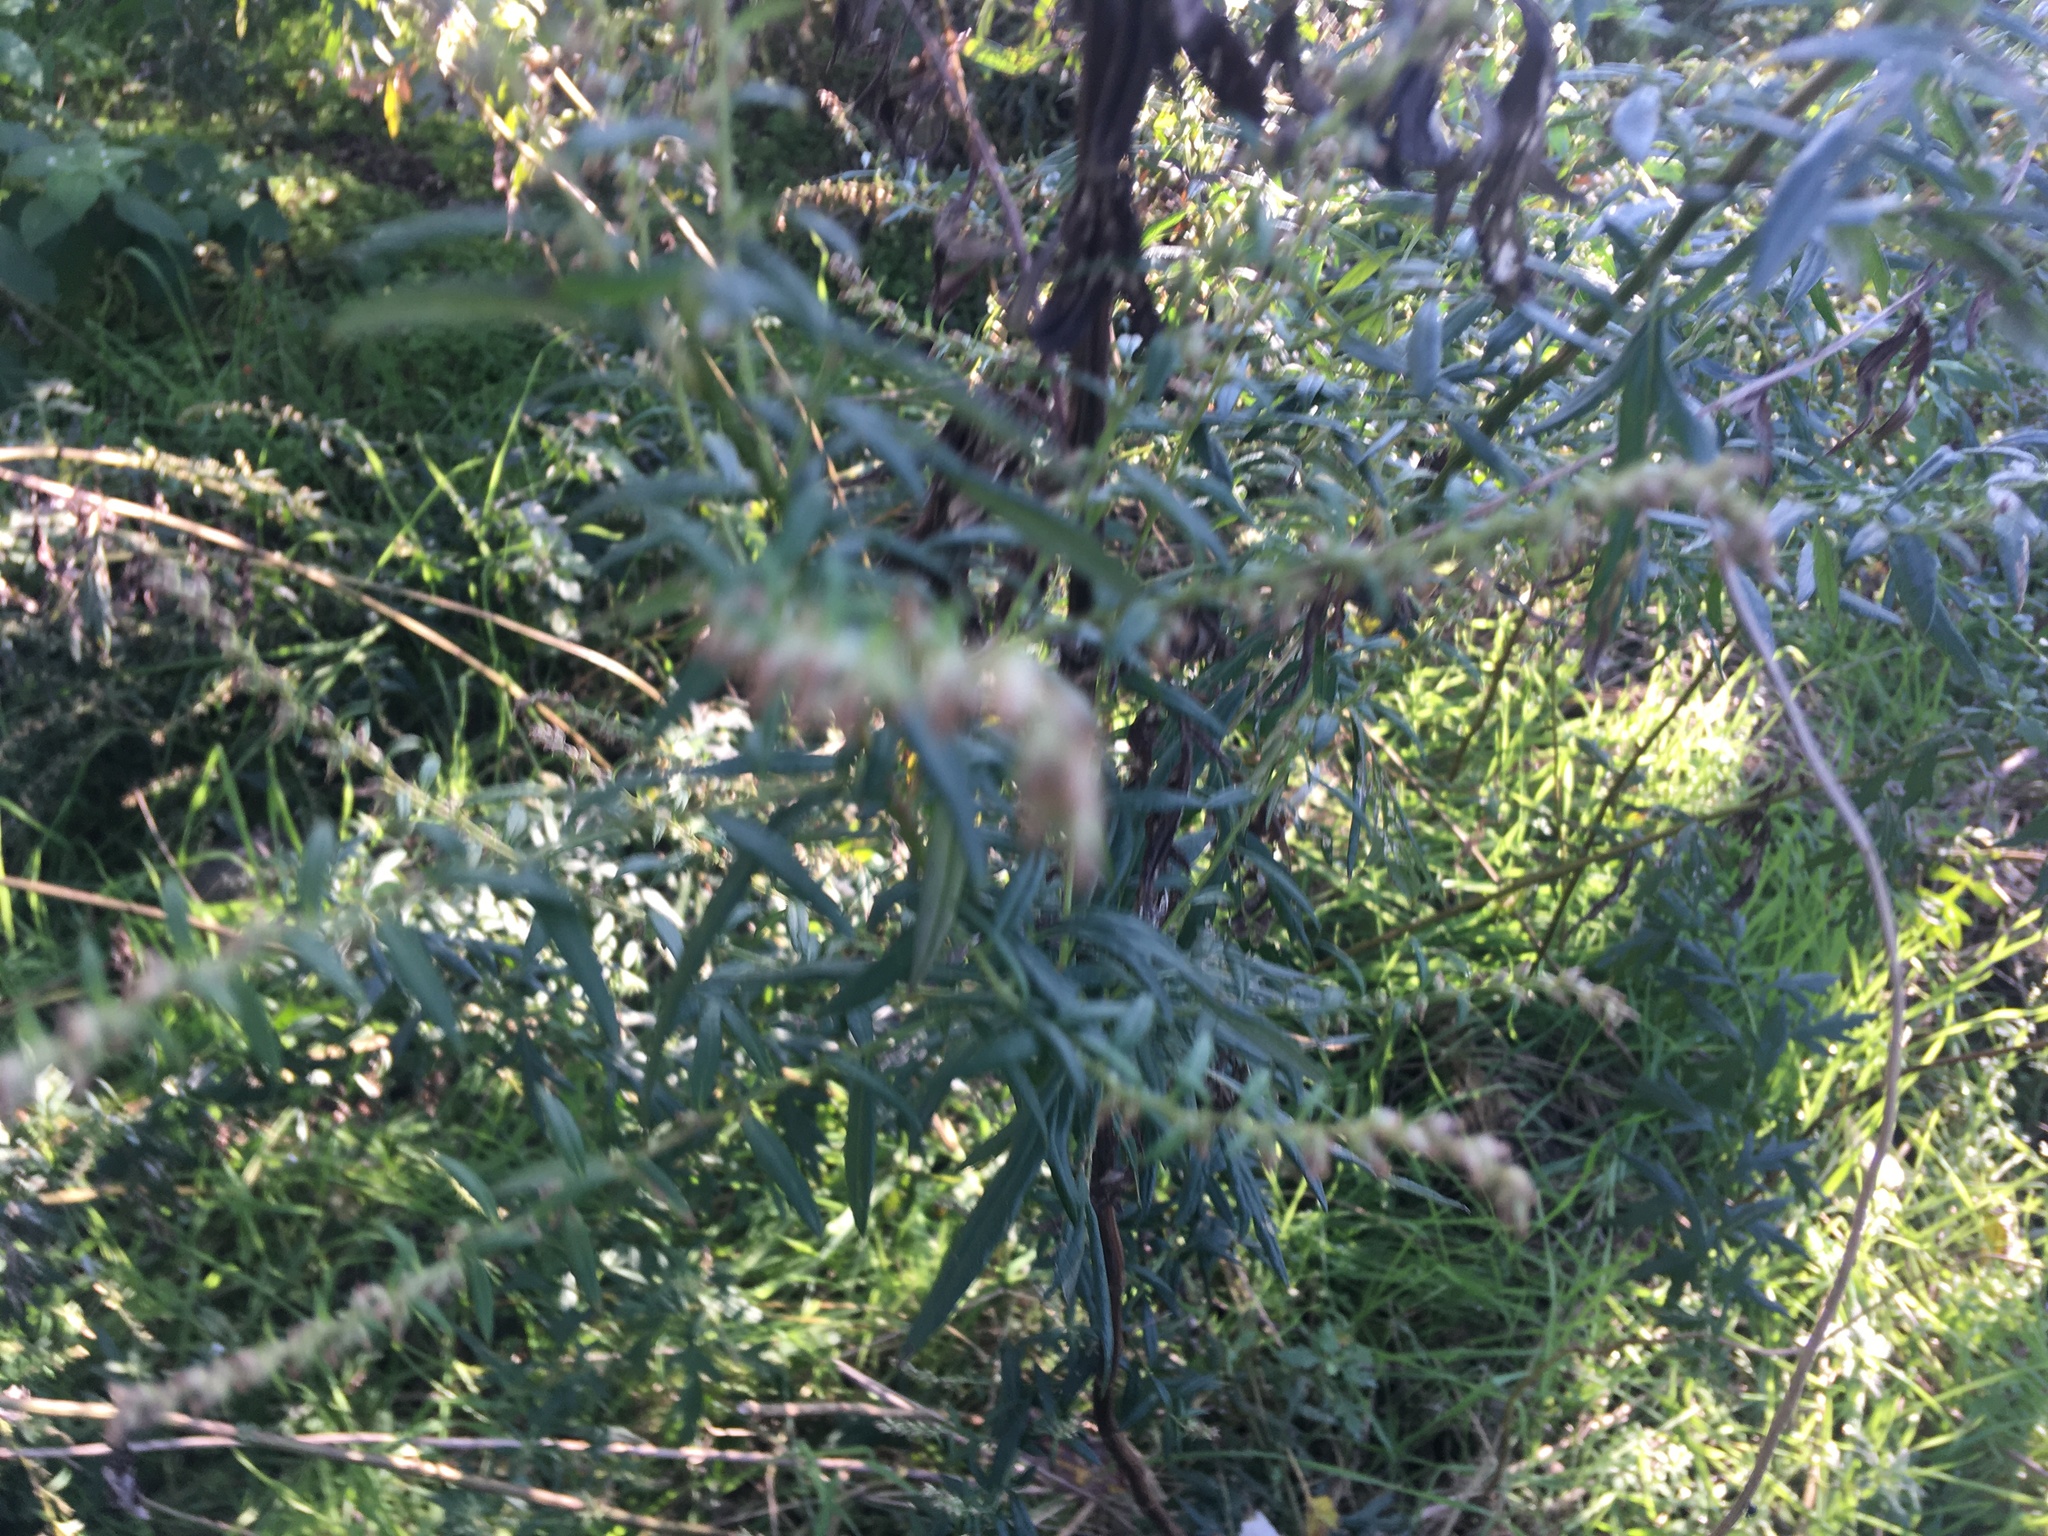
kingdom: Plantae
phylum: Tracheophyta
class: Magnoliopsida
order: Asterales
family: Asteraceae
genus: Artemisia
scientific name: Artemisia vulgaris
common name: Mugwort
